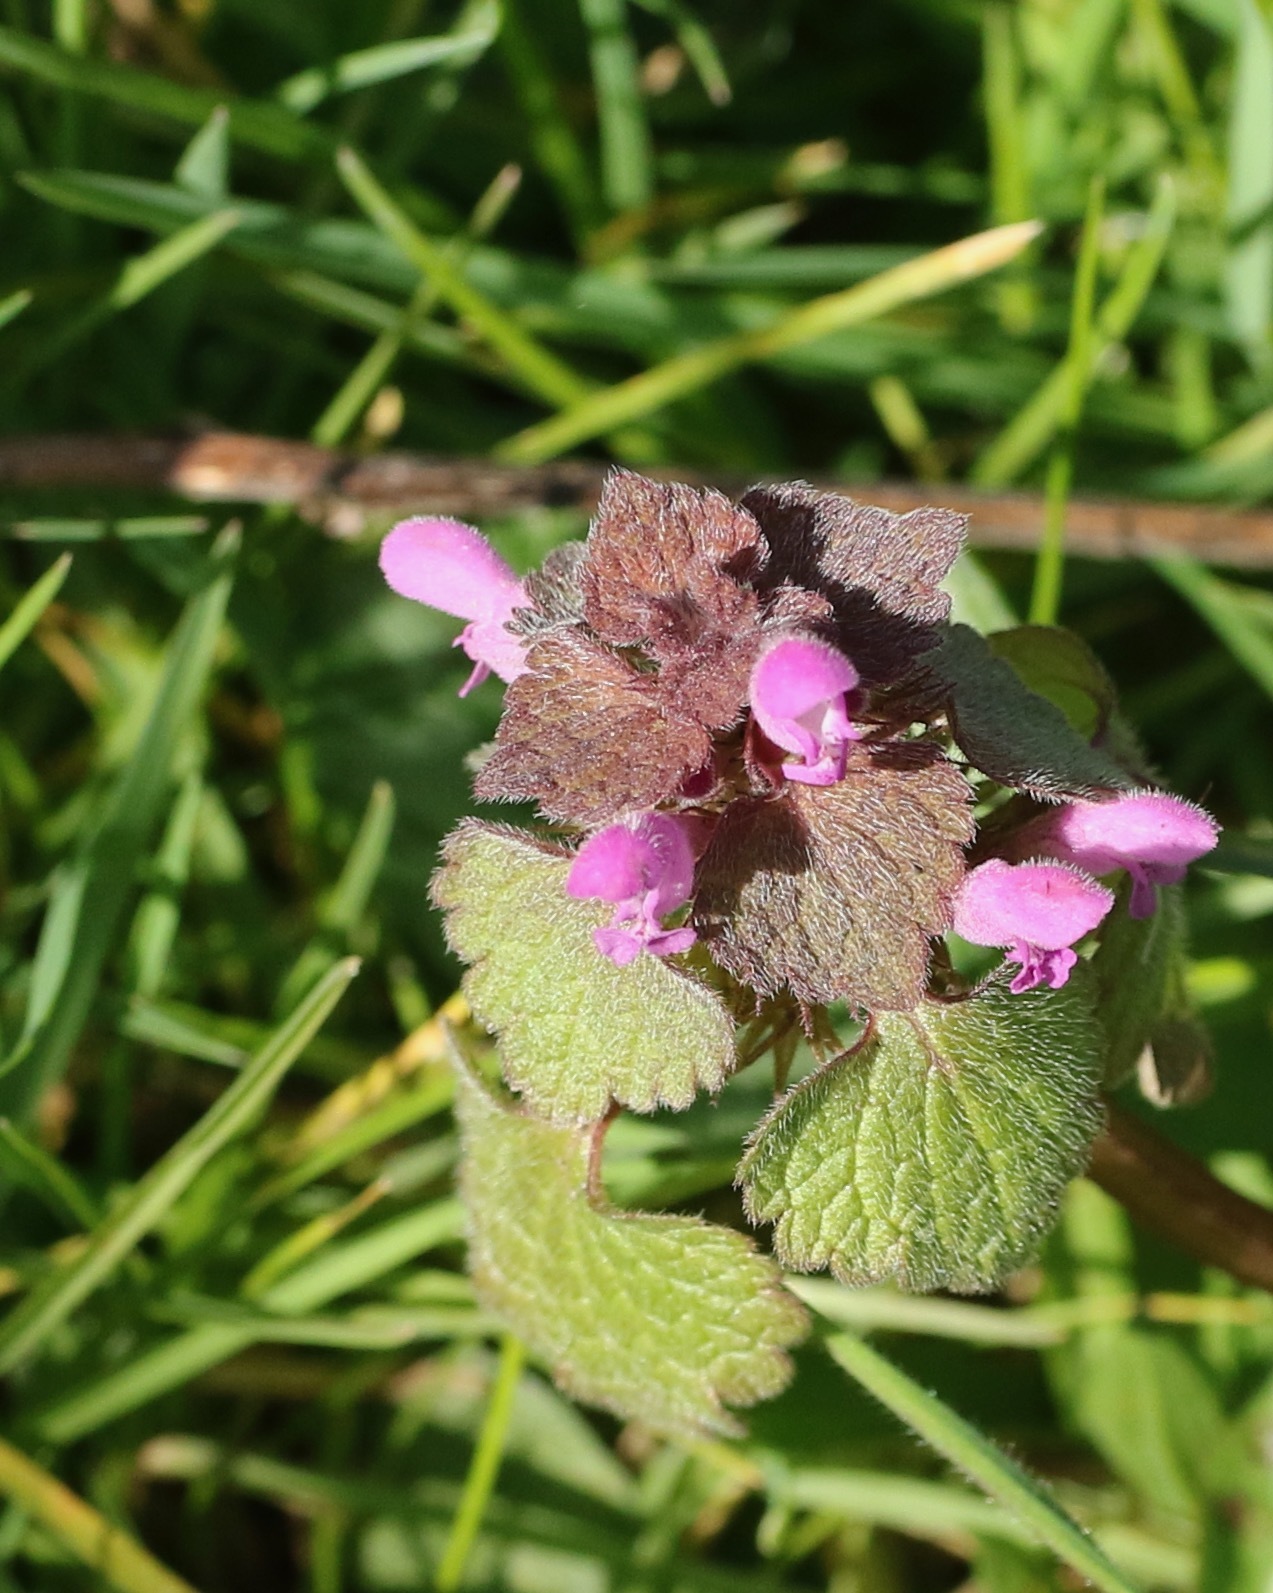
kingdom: Plantae
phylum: Tracheophyta
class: Magnoliopsida
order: Lamiales
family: Lamiaceae
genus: Lamium
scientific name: Lamium purpureum
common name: Red dead-nettle
